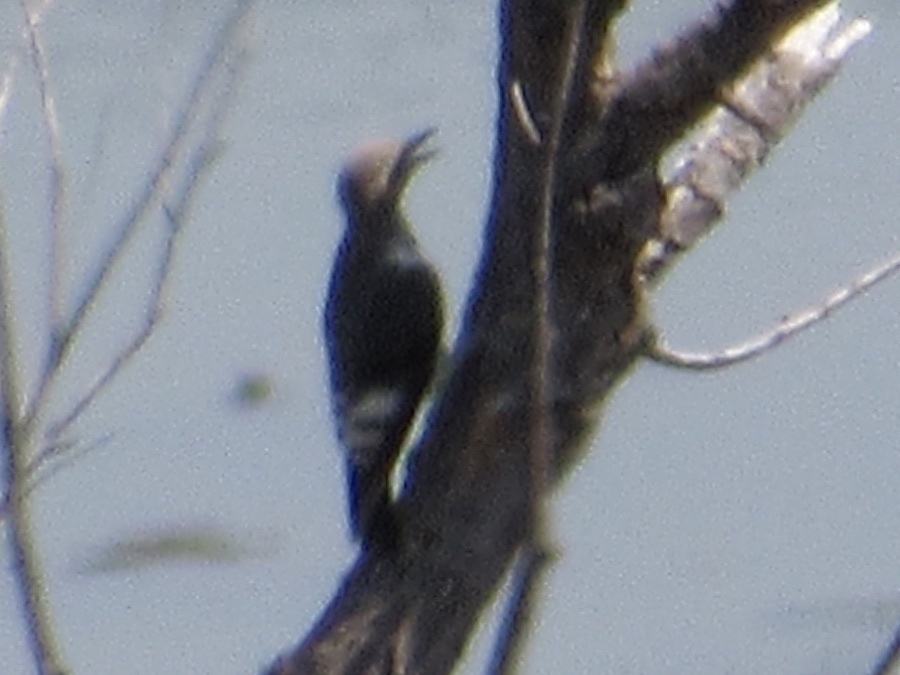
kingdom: Animalia
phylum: Chordata
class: Aves
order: Piciformes
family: Picidae
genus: Melanerpes
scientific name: Melanerpes erythrocephalus
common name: Red-headed woodpecker
